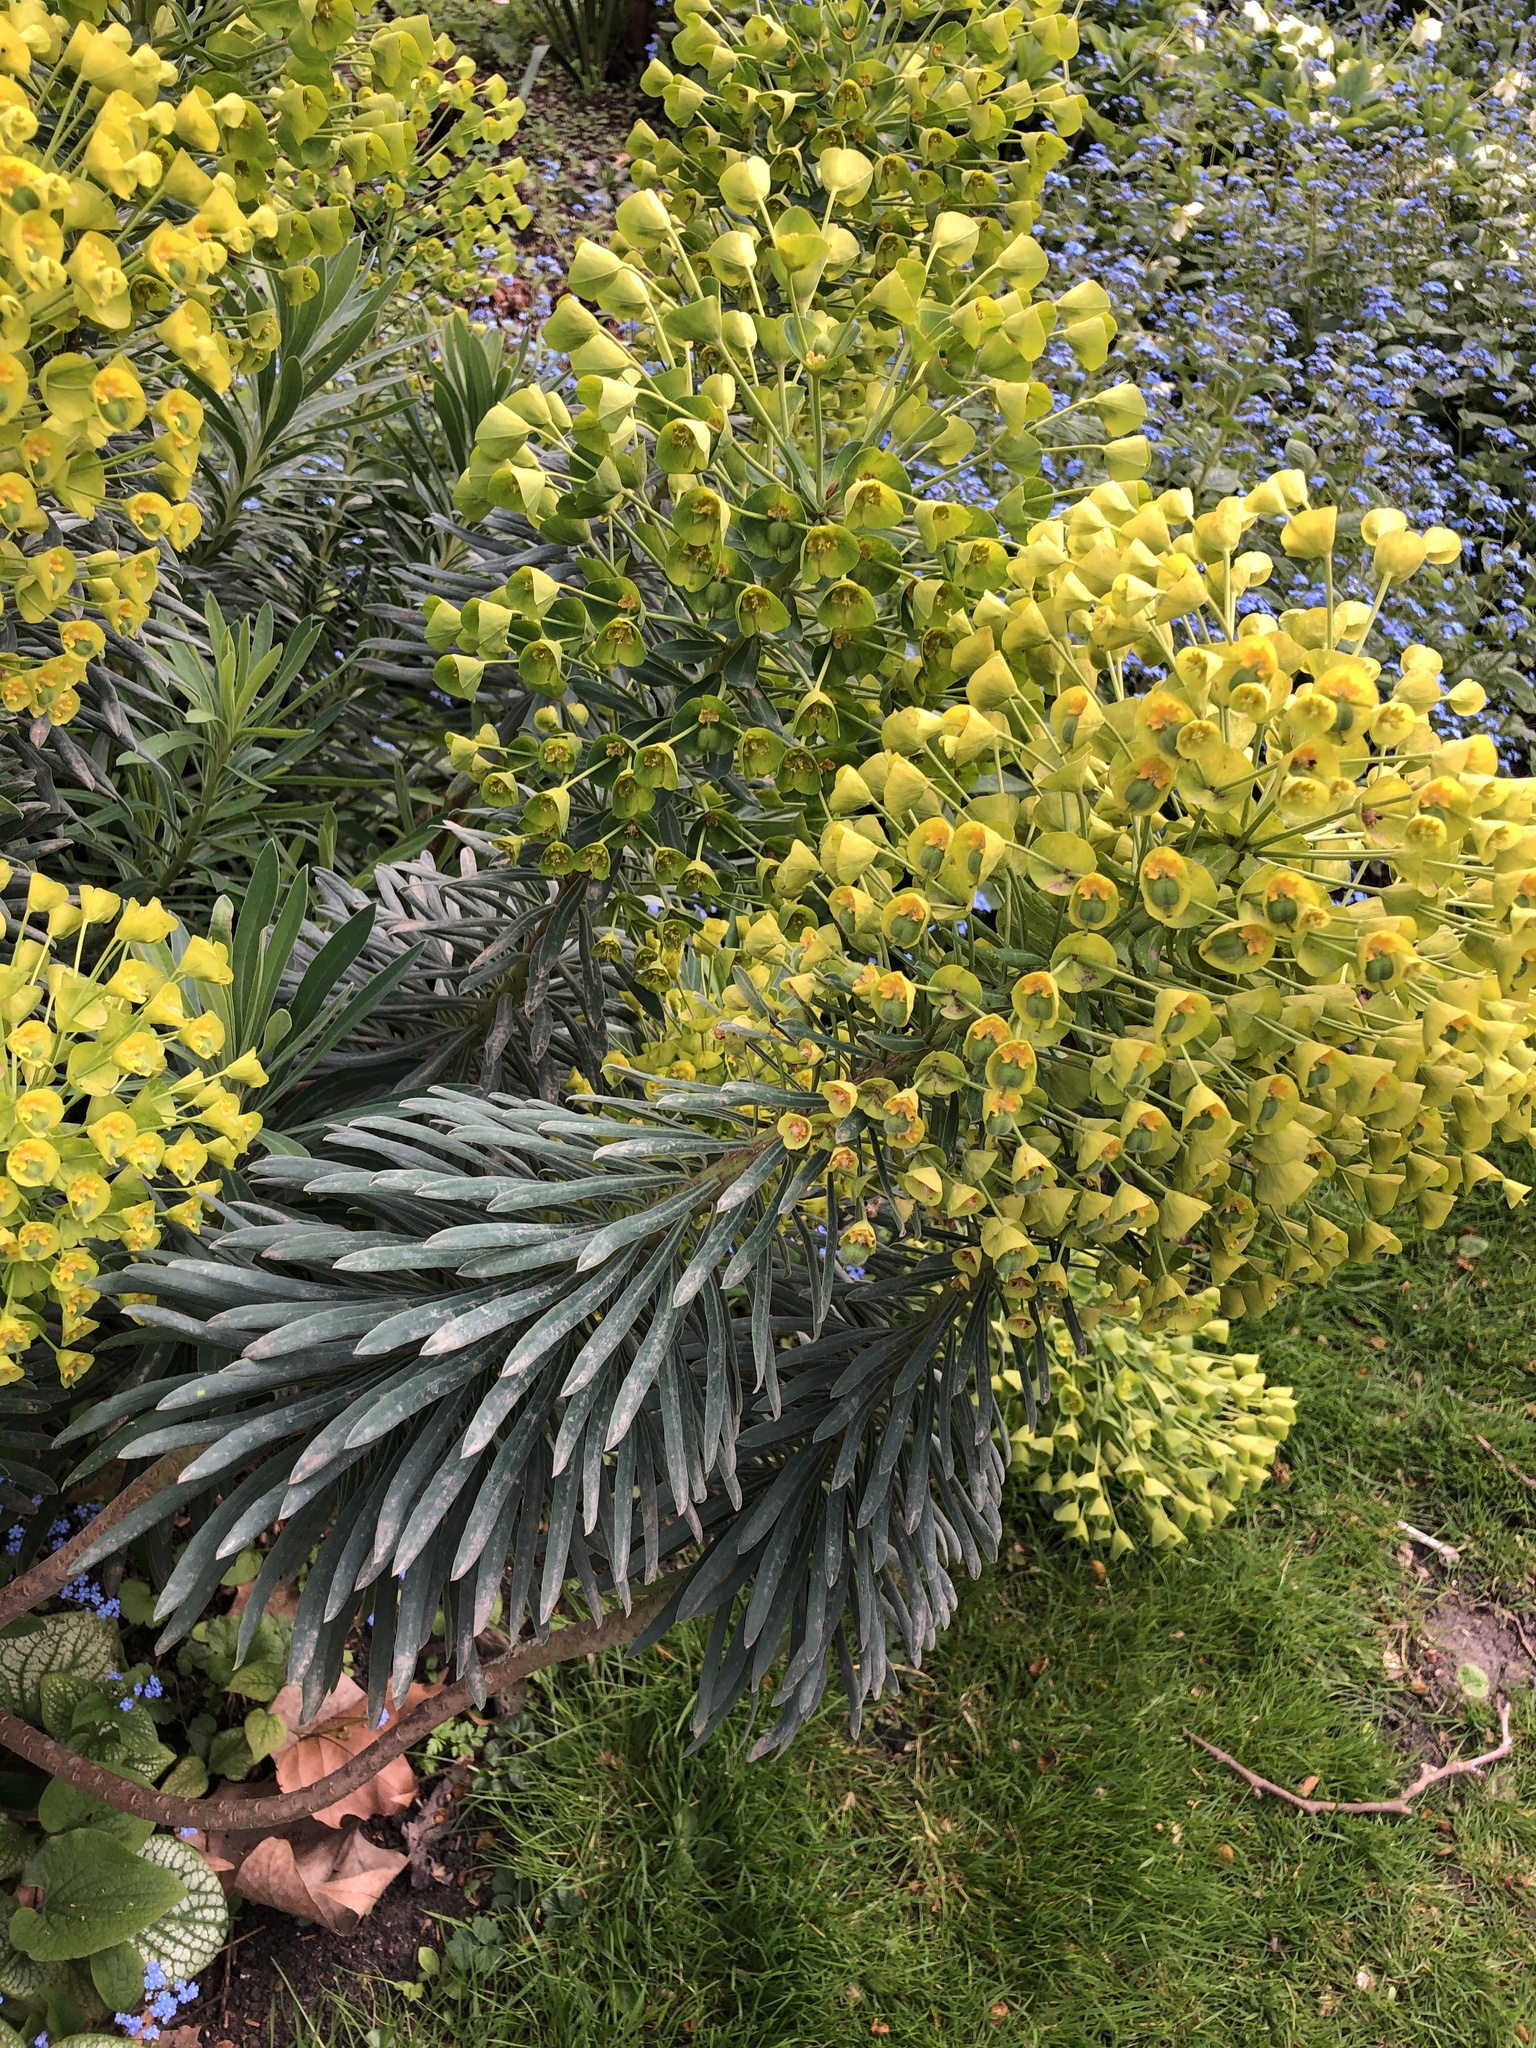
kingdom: Plantae
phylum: Tracheophyta
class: Magnoliopsida
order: Malpighiales
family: Euphorbiaceae
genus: Euphorbia
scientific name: Euphorbia characias
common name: Mediterranean spurge
